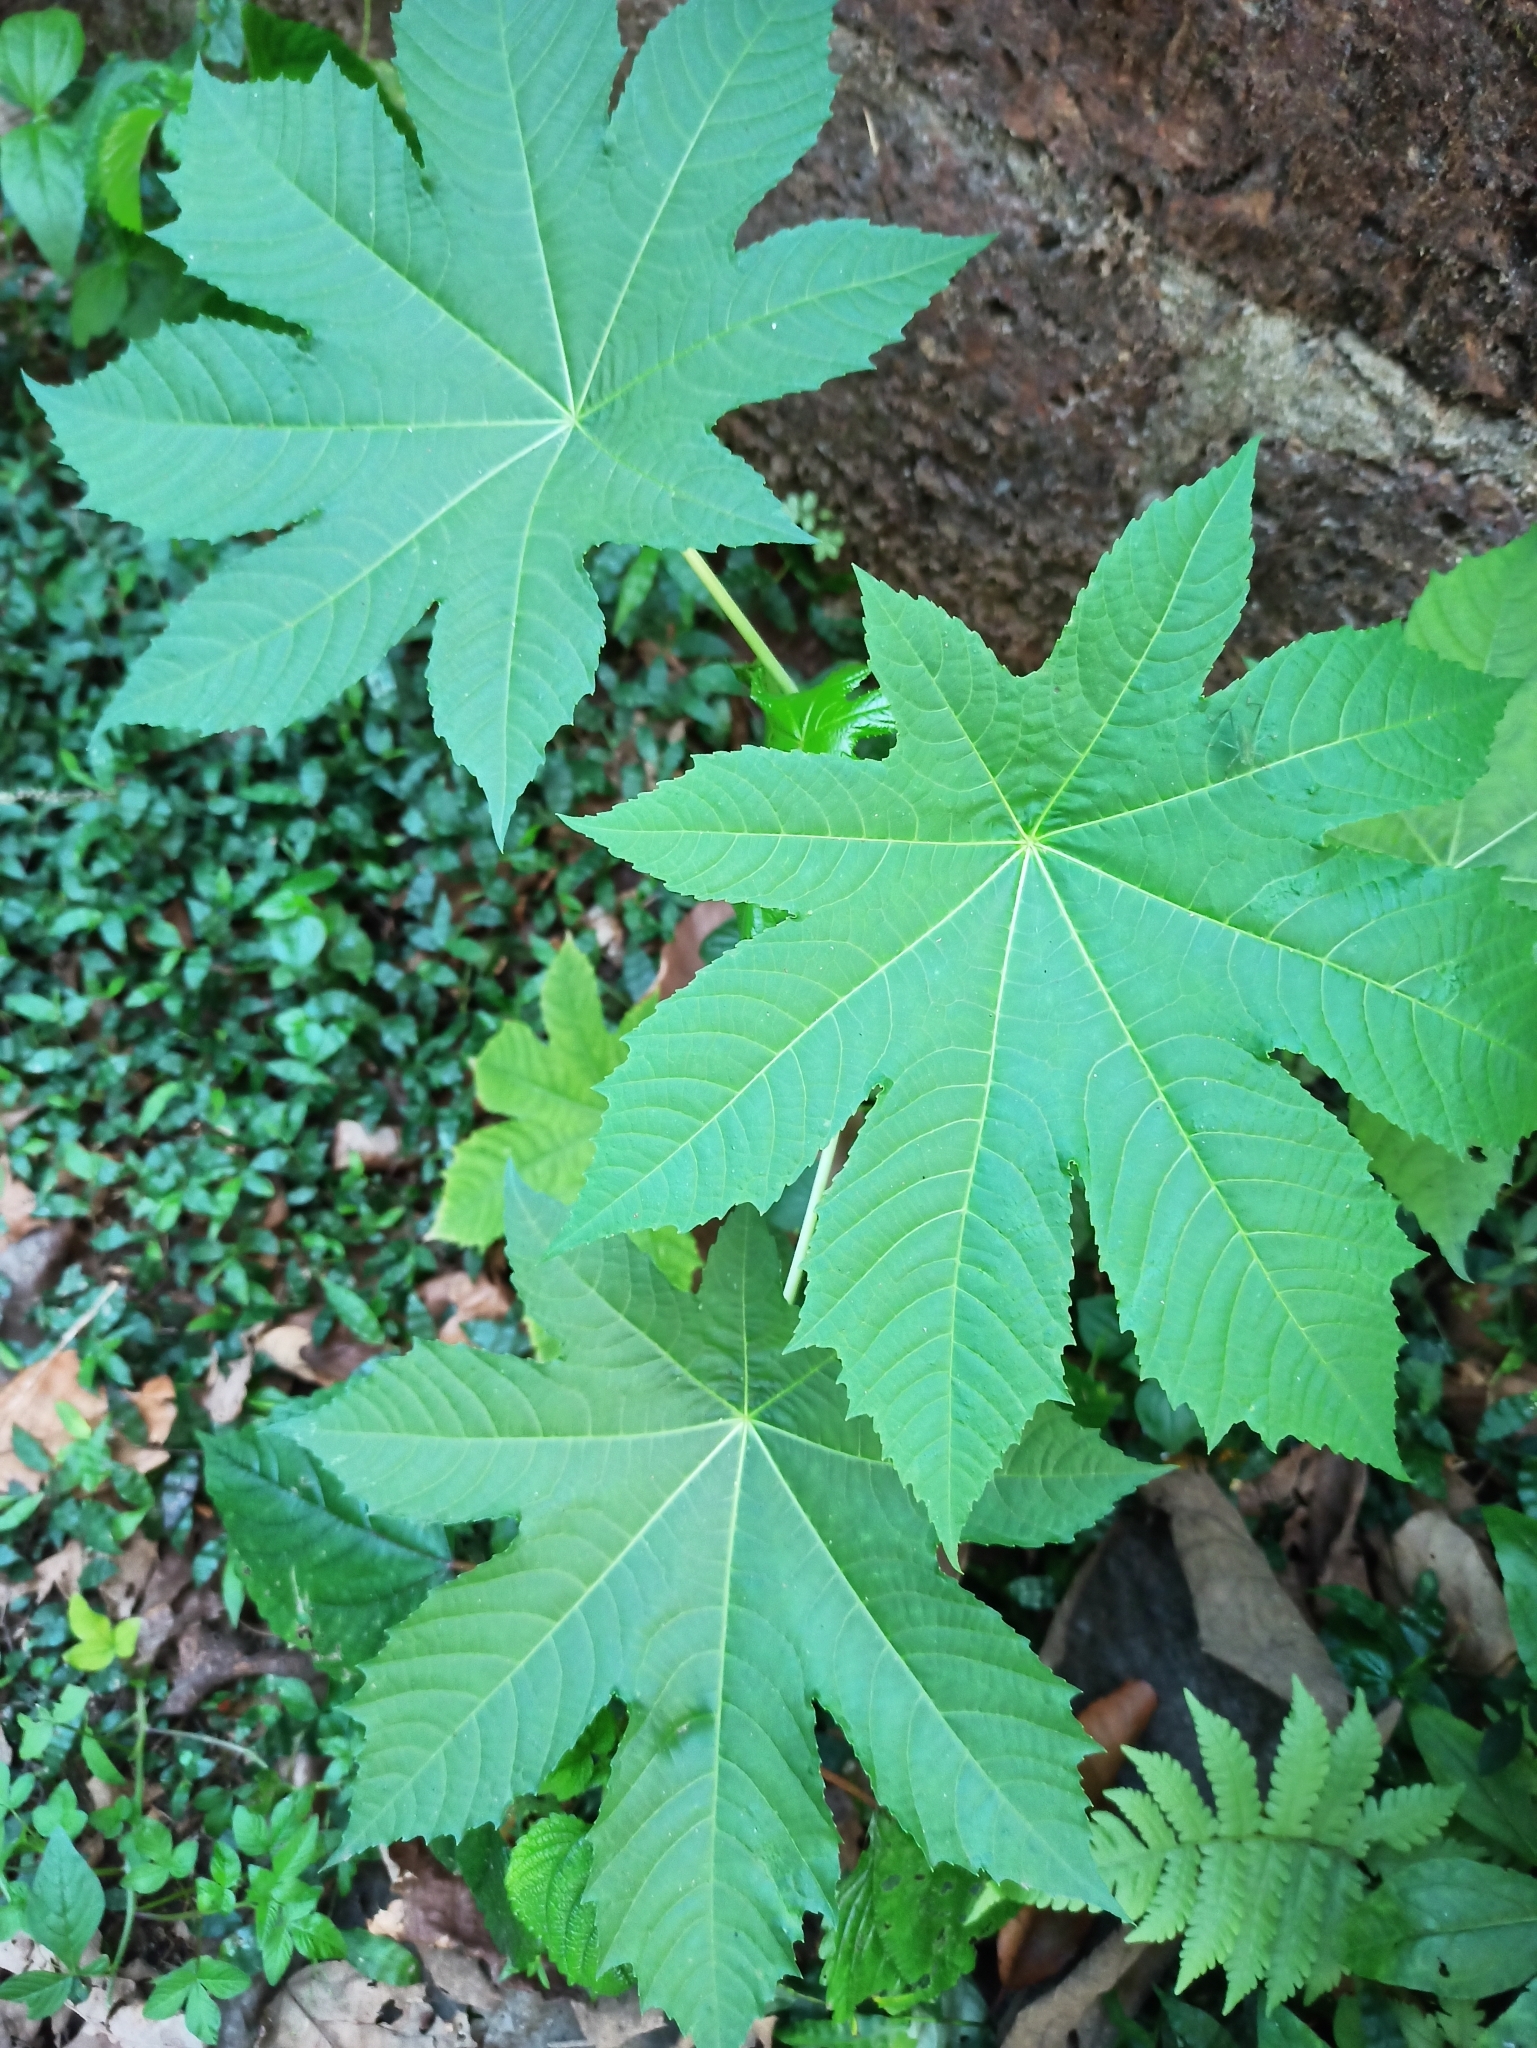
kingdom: Plantae
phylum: Tracheophyta
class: Magnoliopsida
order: Malpighiales
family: Euphorbiaceae
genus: Ricinus
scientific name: Ricinus communis
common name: Castor-oil-plant
